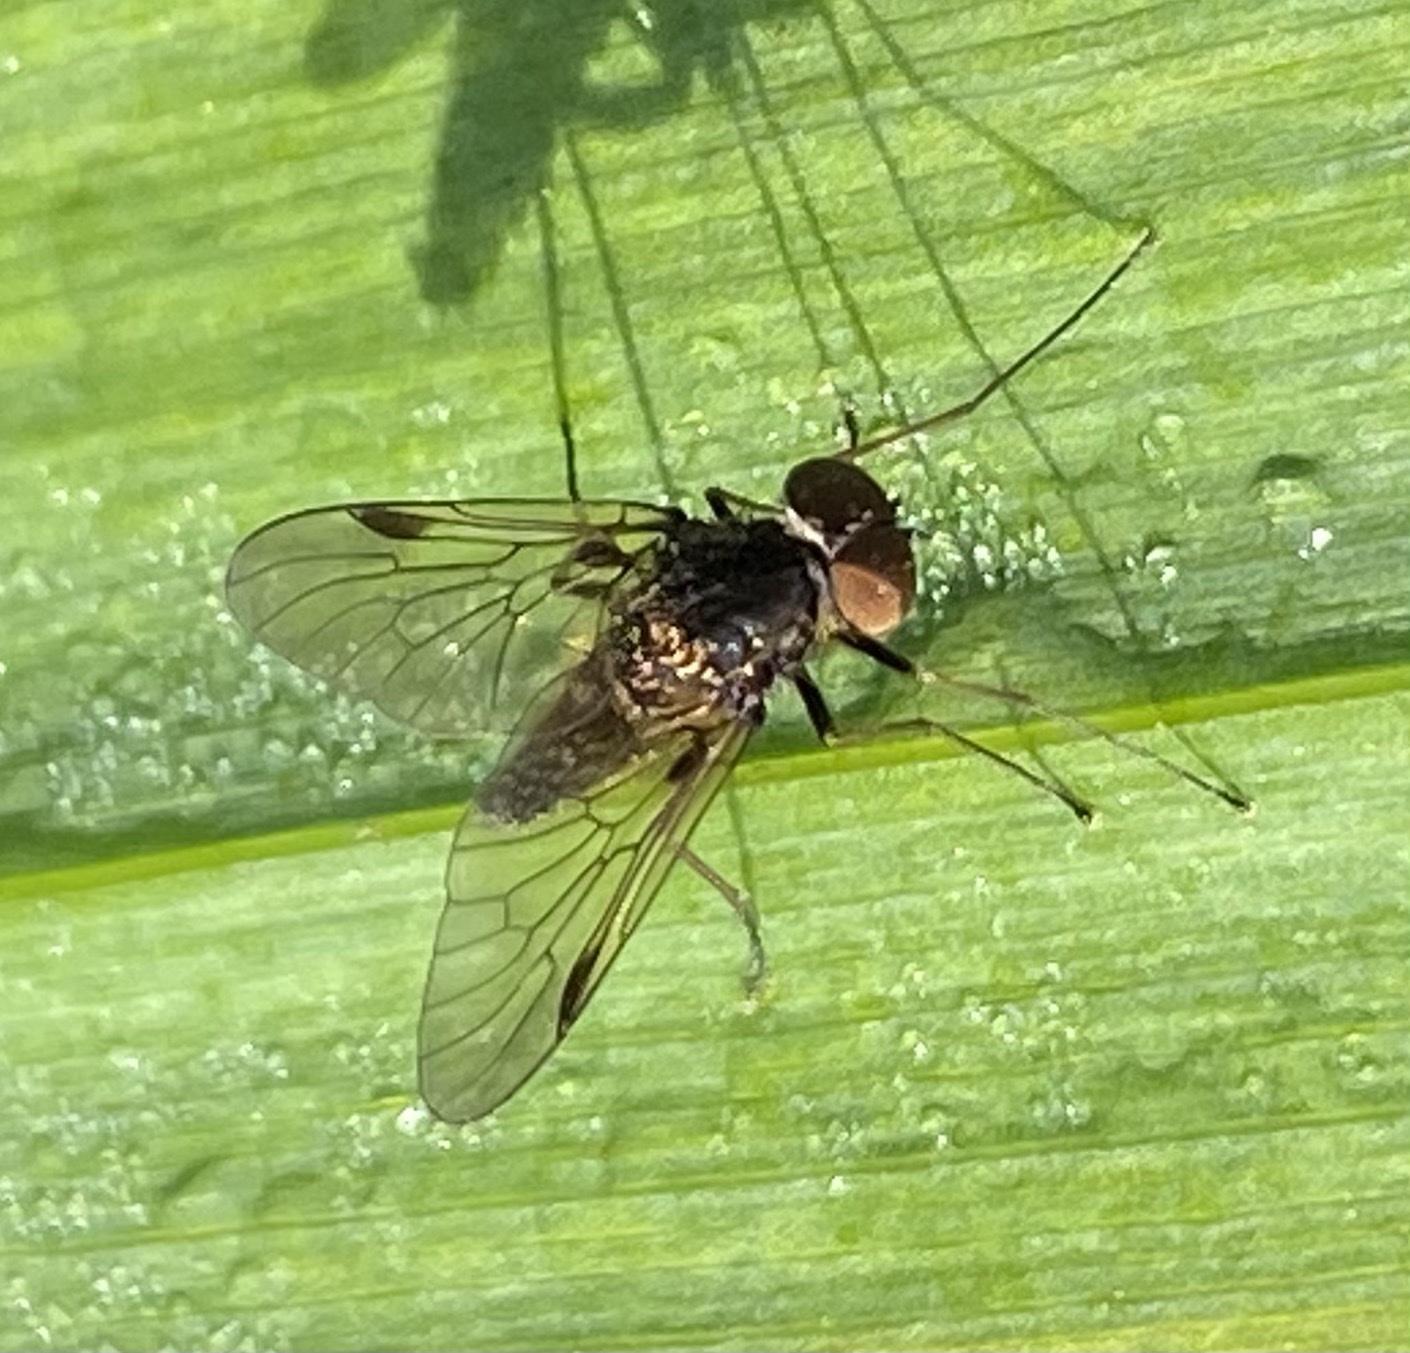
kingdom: Animalia
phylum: Arthropoda
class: Insecta
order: Diptera
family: Rhagionidae
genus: Chrysopilus
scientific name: Chrysopilus cristatus
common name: Black snipefly
